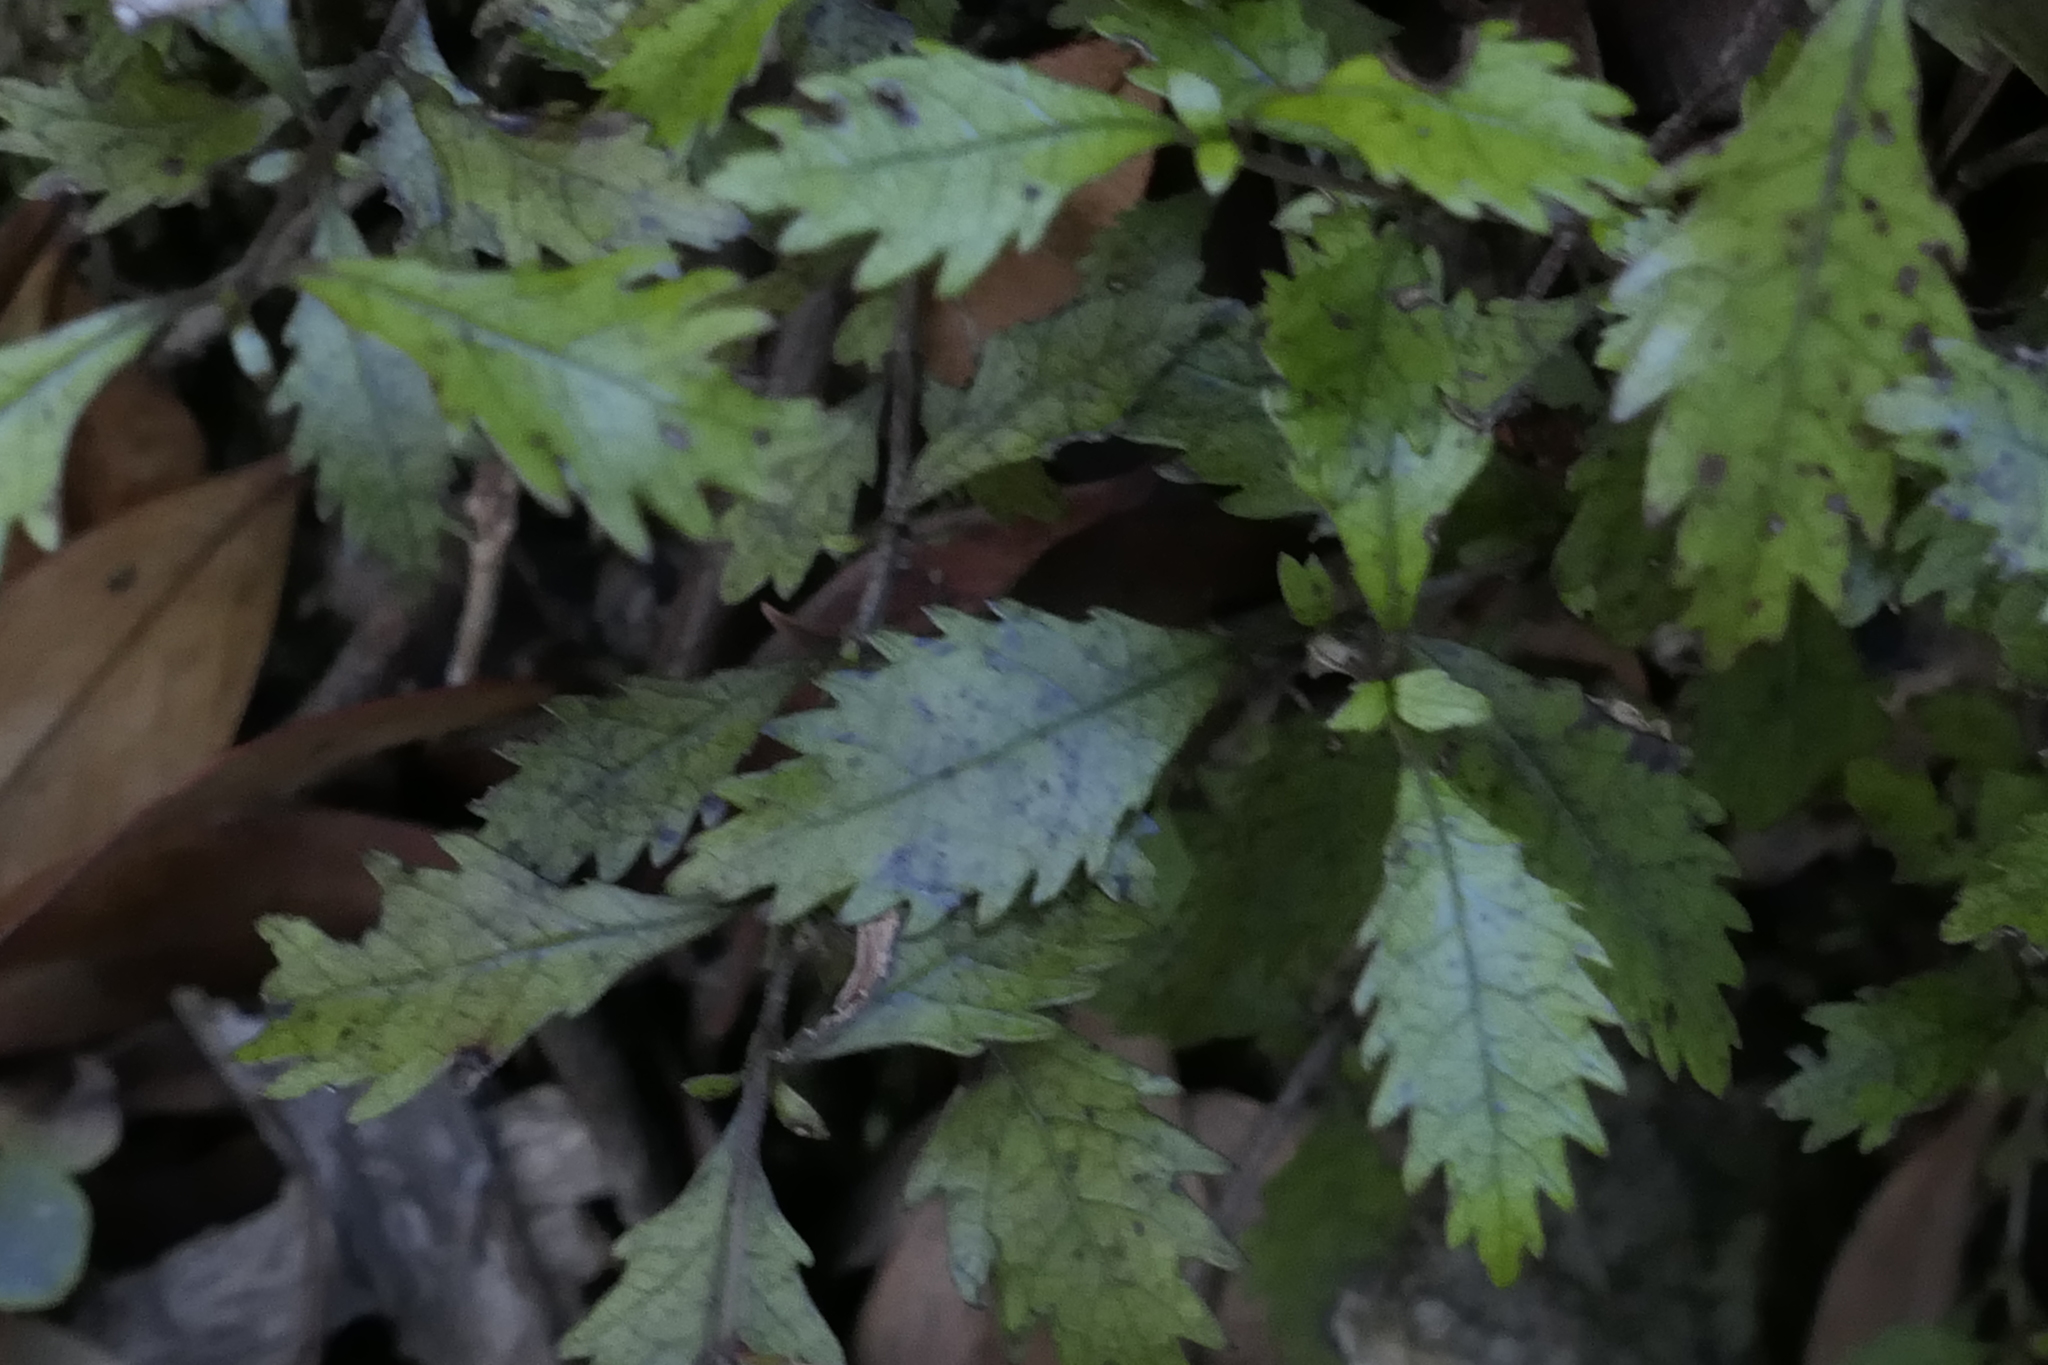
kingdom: Plantae
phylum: Tracheophyta
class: Magnoliopsida
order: Oxalidales
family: Cunoniaceae
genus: Pterophylla
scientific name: Pterophylla racemosa
